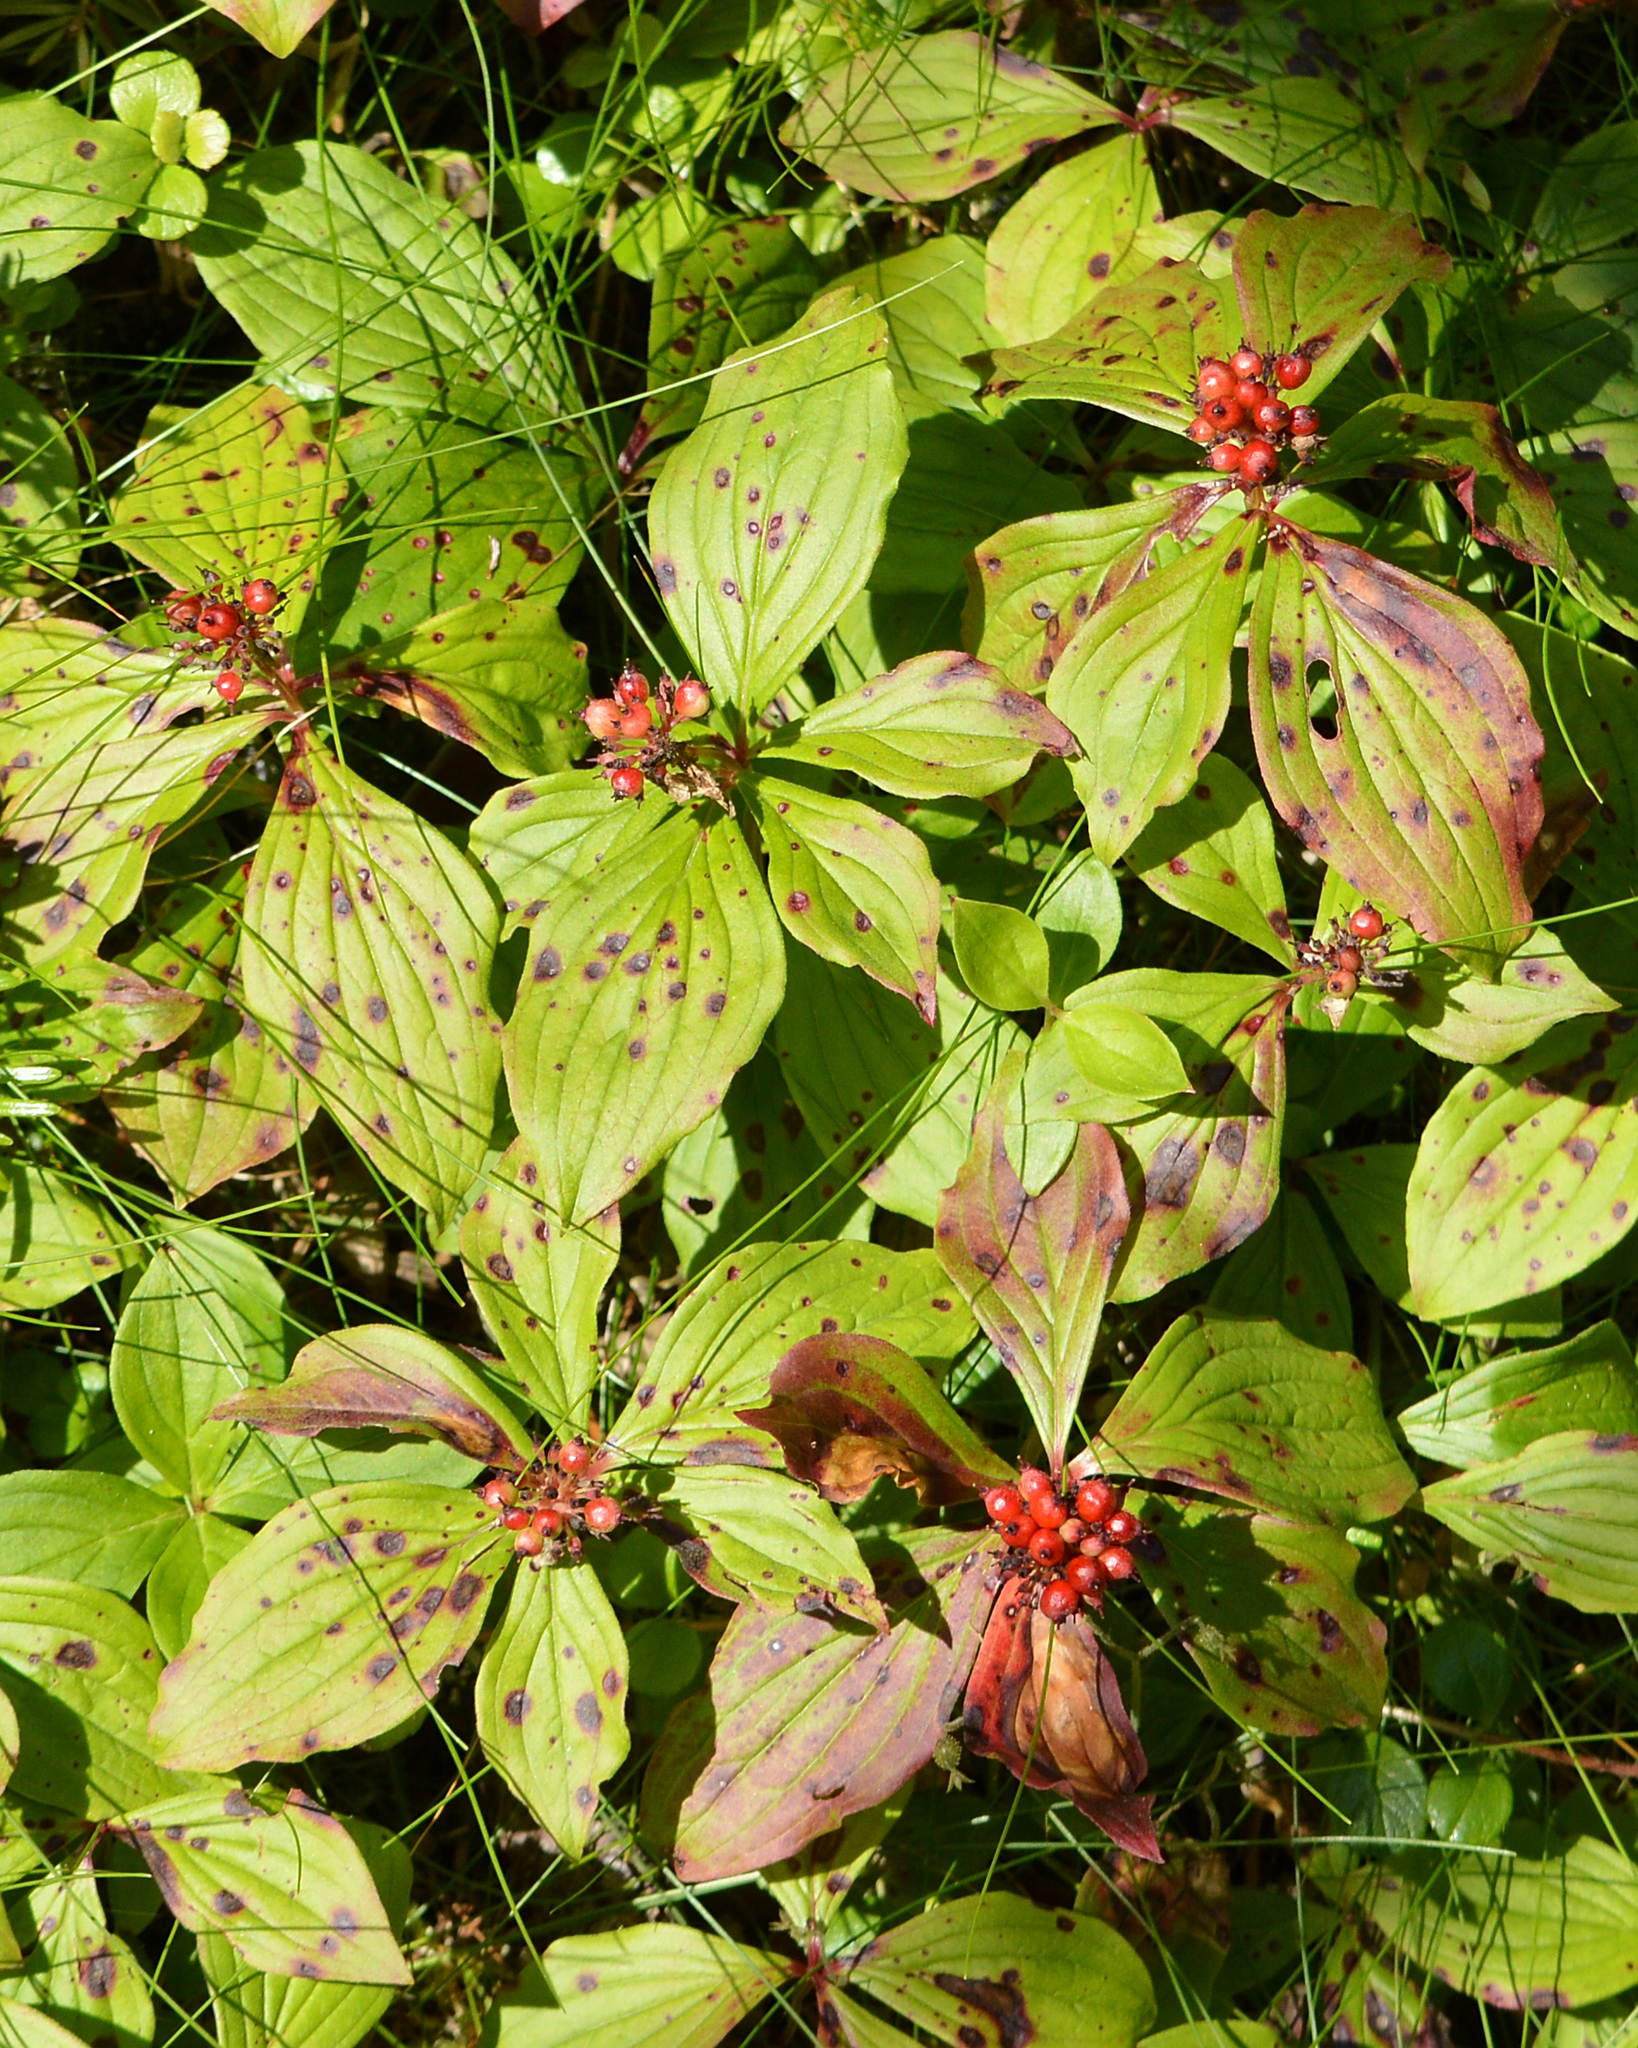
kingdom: Plantae
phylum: Tracheophyta
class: Magnoliopsida
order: Cornales
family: Cornaceae
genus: Cornus
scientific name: Cornus canadensis
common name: Creeping dogwood
